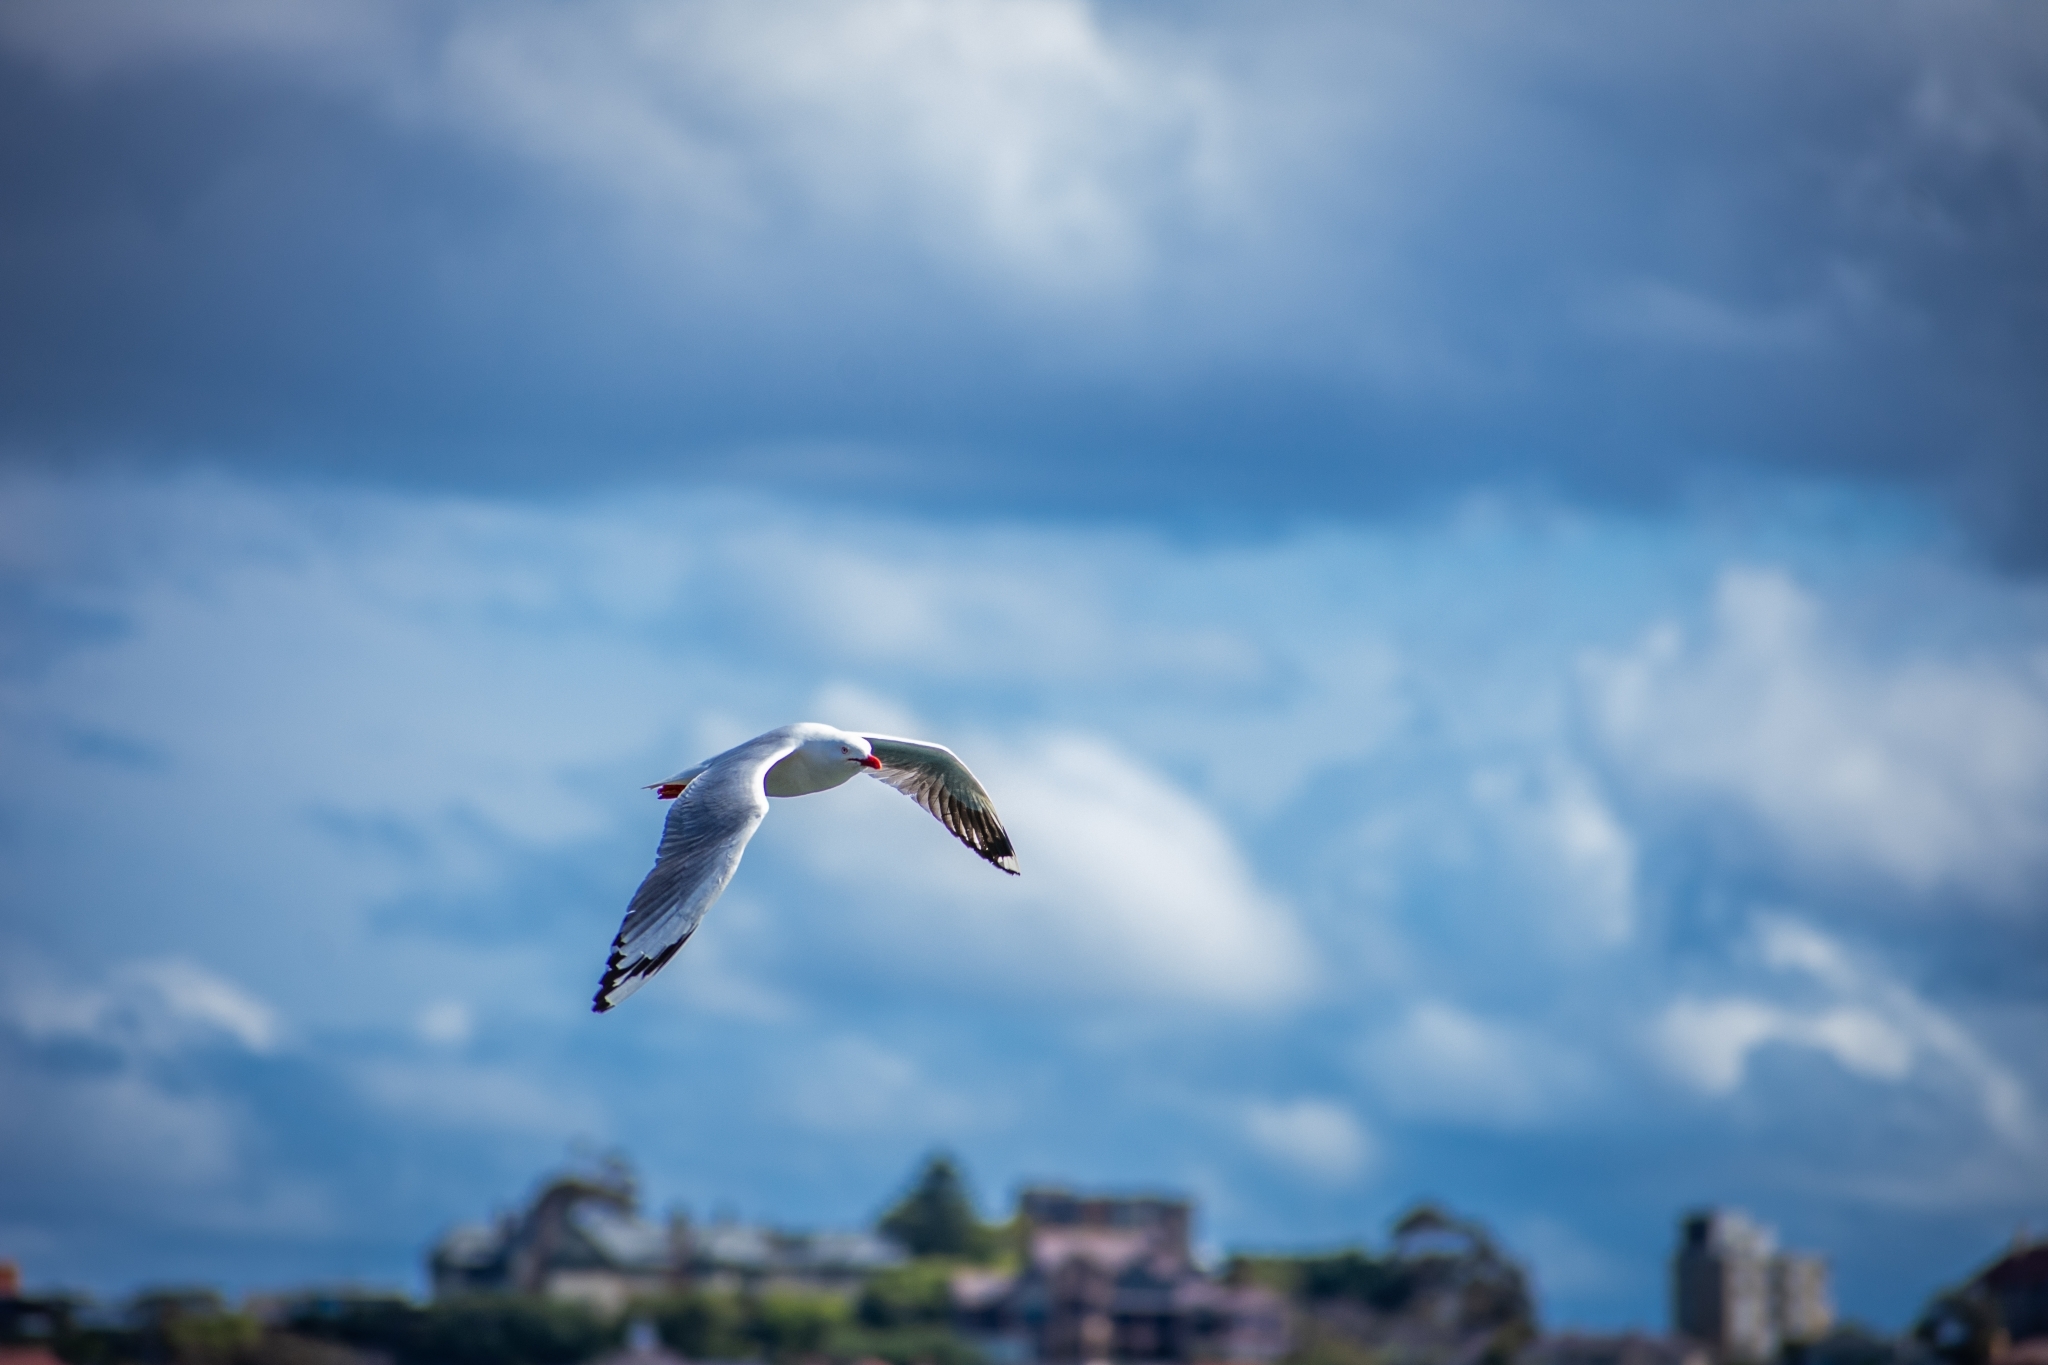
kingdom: Animalia
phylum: Chordata
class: Aves
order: Charadriiformes
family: Laridae
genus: Chroicocephalus
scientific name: Chroicocephalus novaehollandiae
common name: Silver gull
